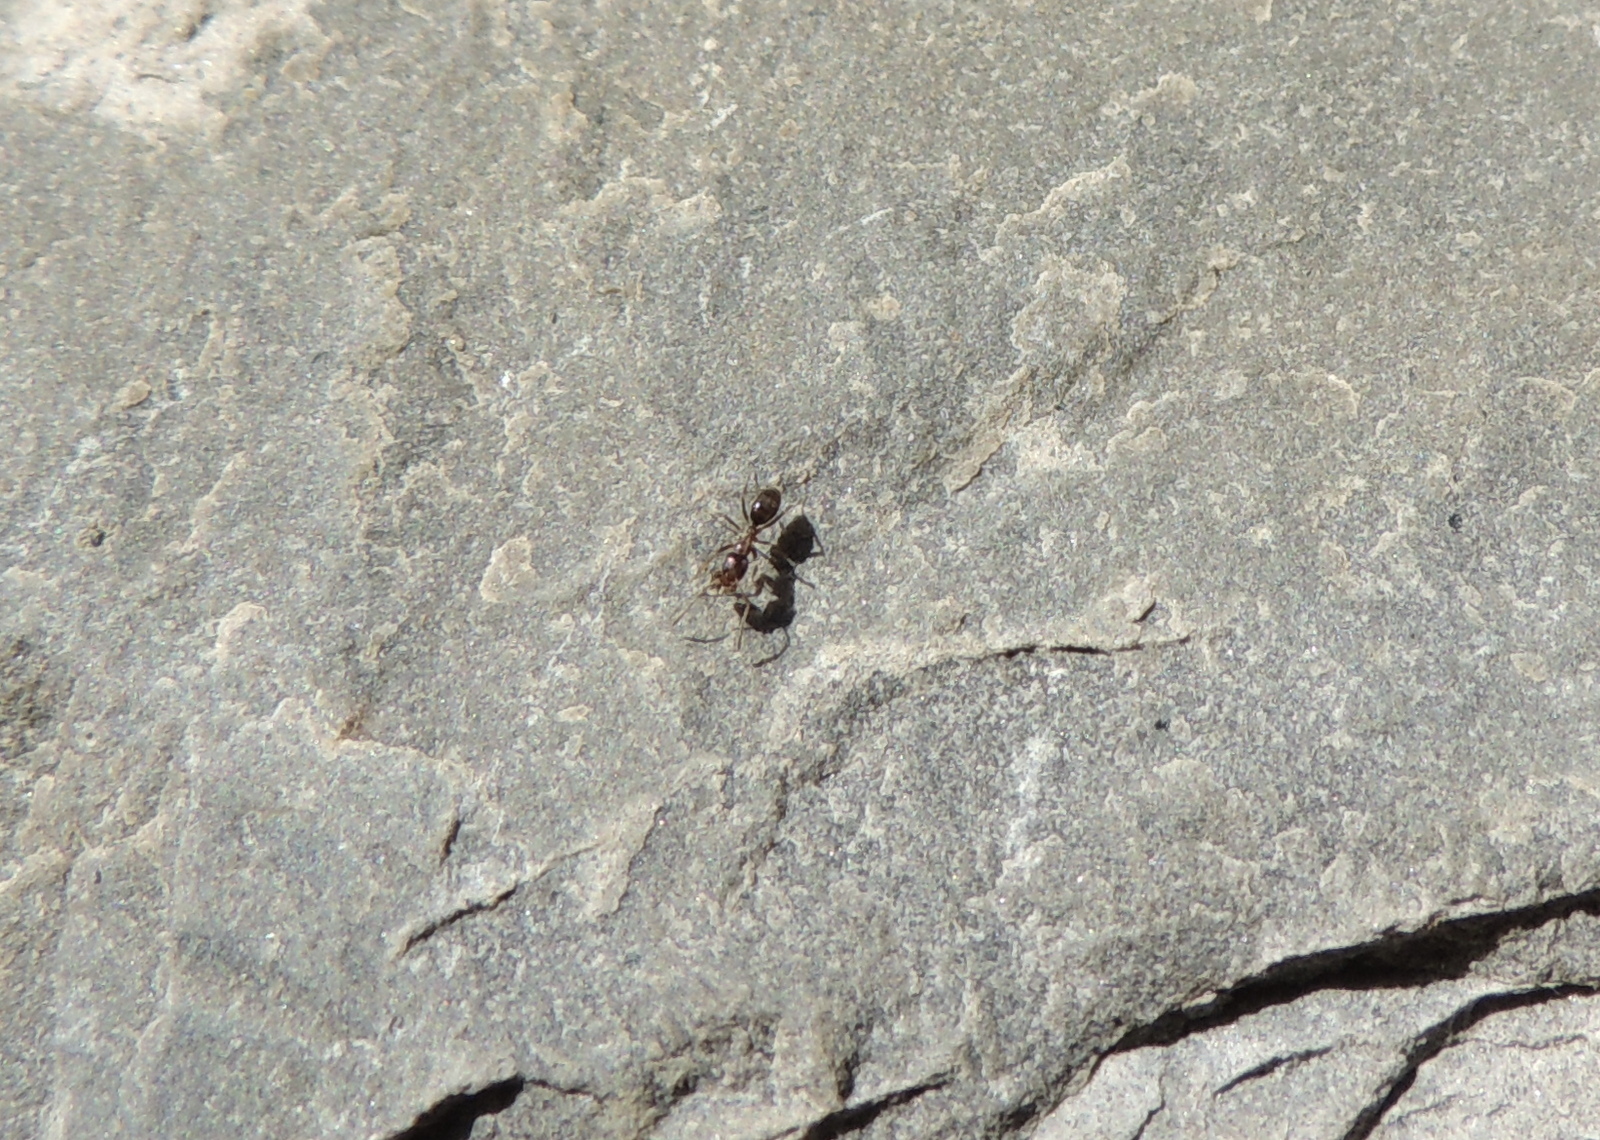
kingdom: Animalia
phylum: Arthropoda
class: Insecta
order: Hymenoptera
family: Formicidae
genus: Linepithema
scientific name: Linepithema humile
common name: Argentine ant
